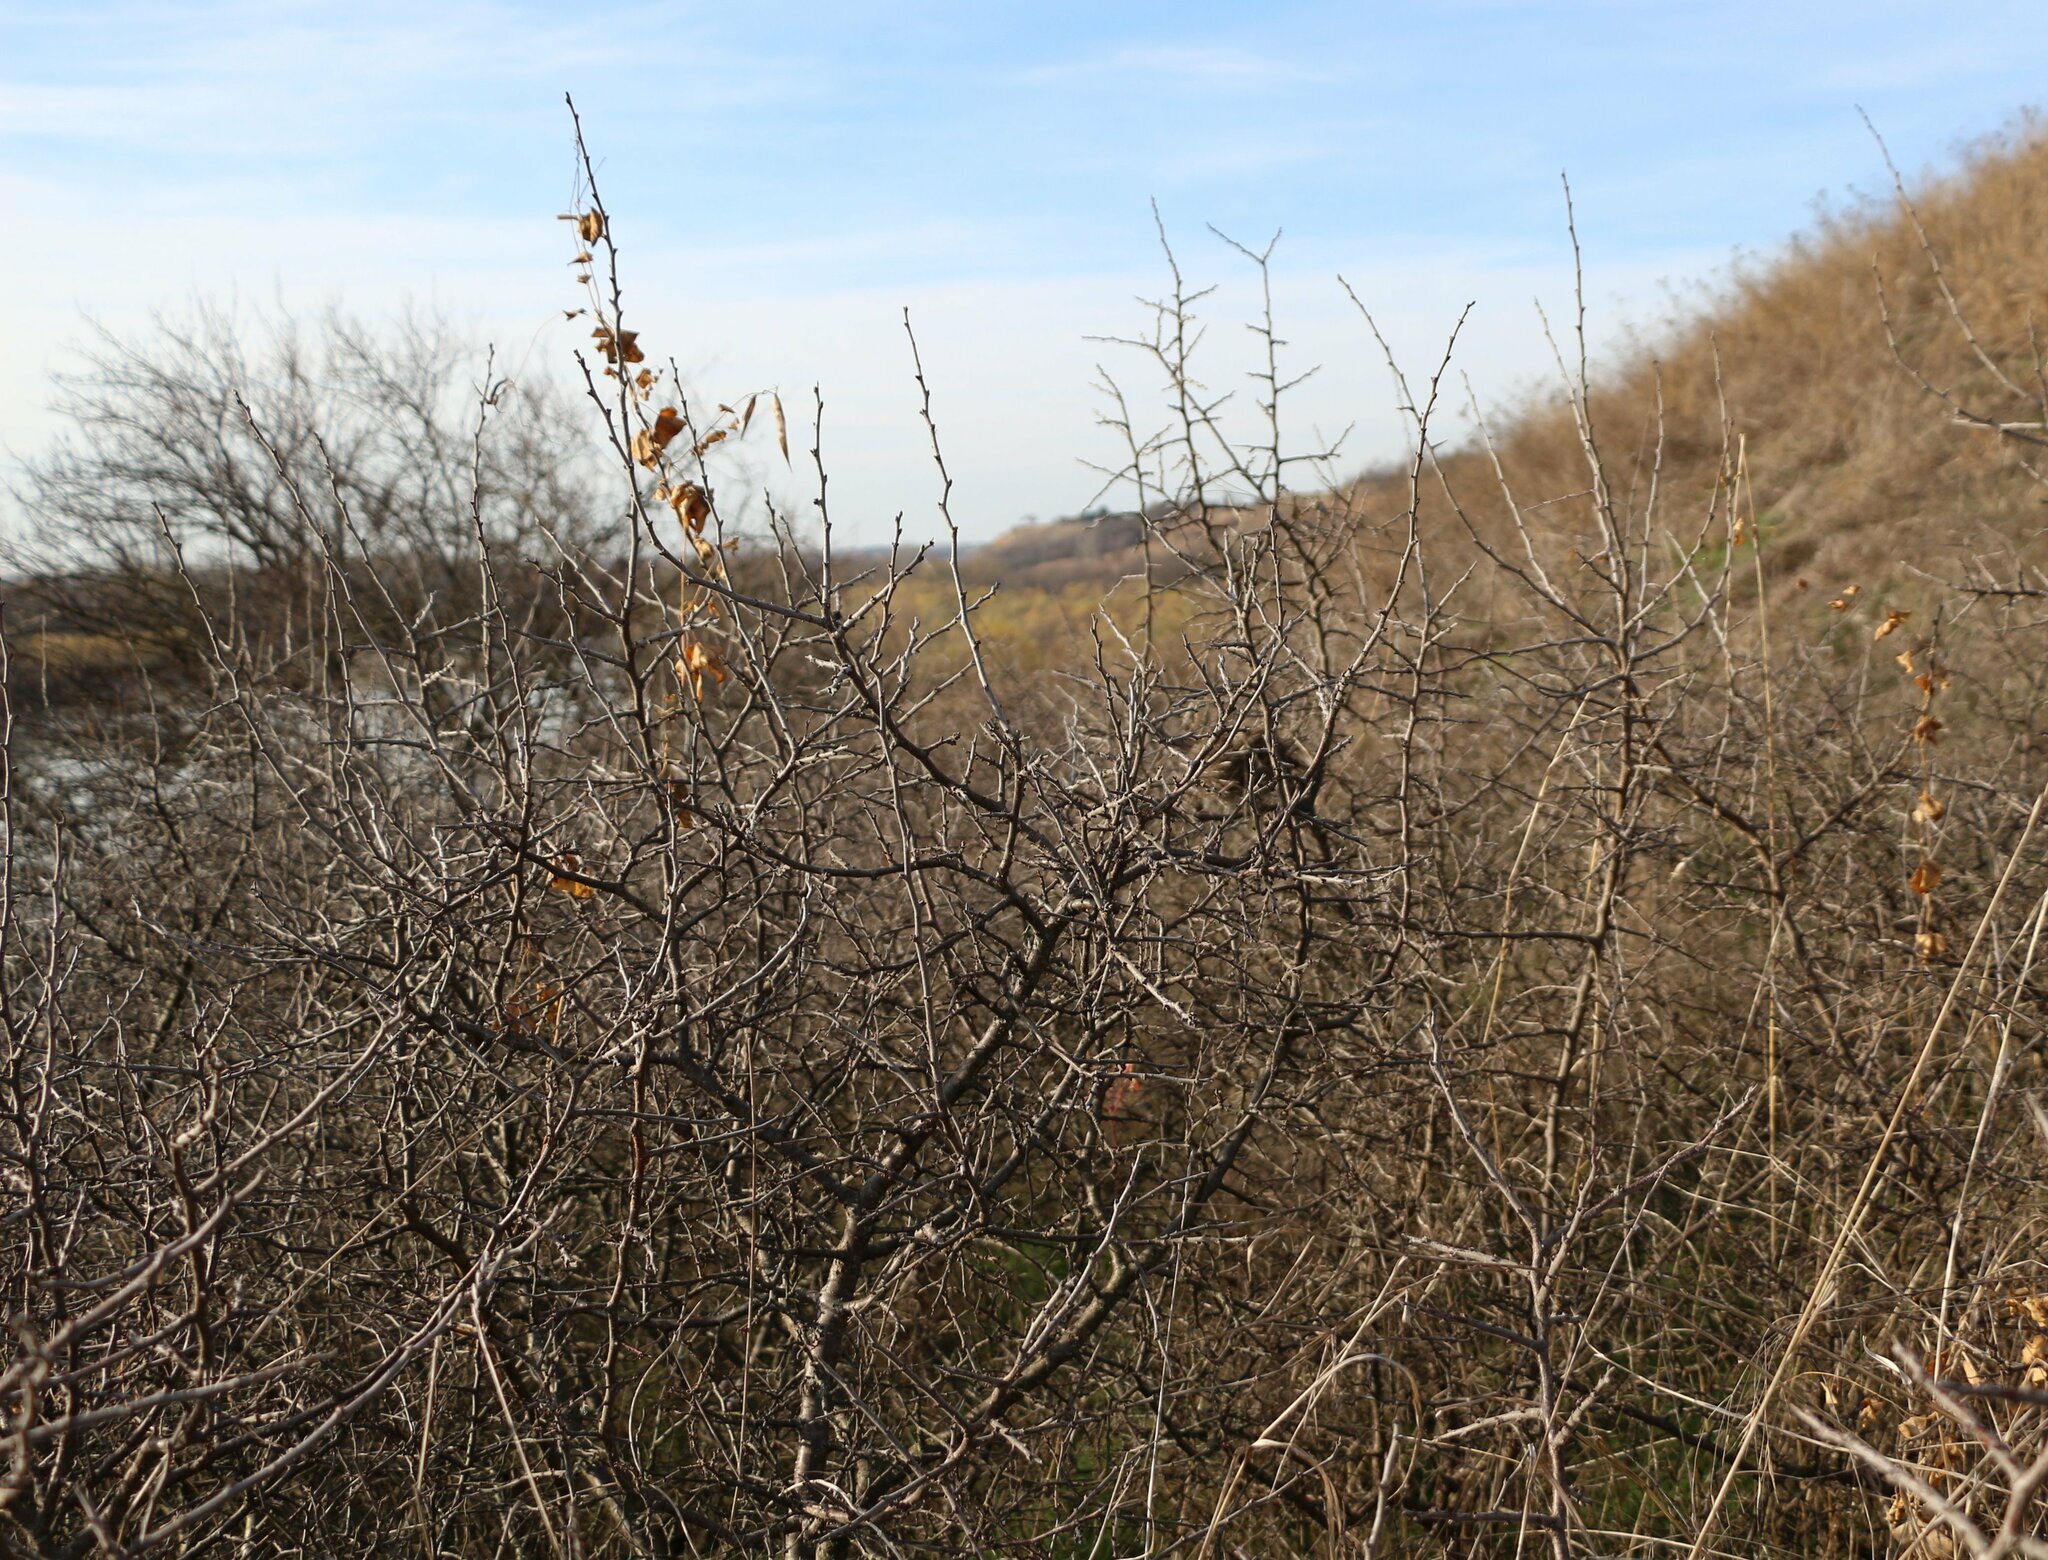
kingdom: Plantae
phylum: Tracheophyta
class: Magnoliopsida
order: Rosales
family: Rosaceae
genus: Prunus
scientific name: Prunus spinosa
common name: Blackthorn
